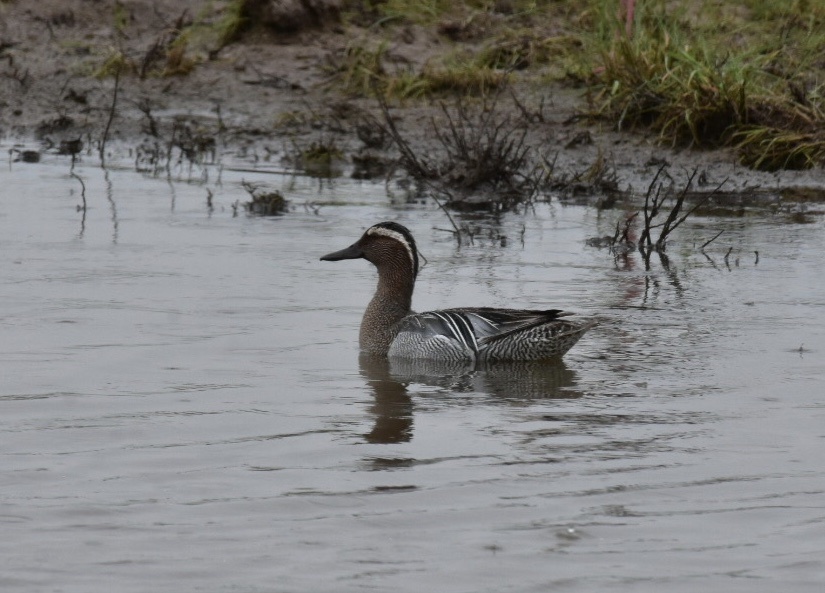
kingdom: Animalia
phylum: Chordata
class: Aves
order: Anseriformes
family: Anatidae
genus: Spatula
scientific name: Spatula querquedula
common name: Garganey
